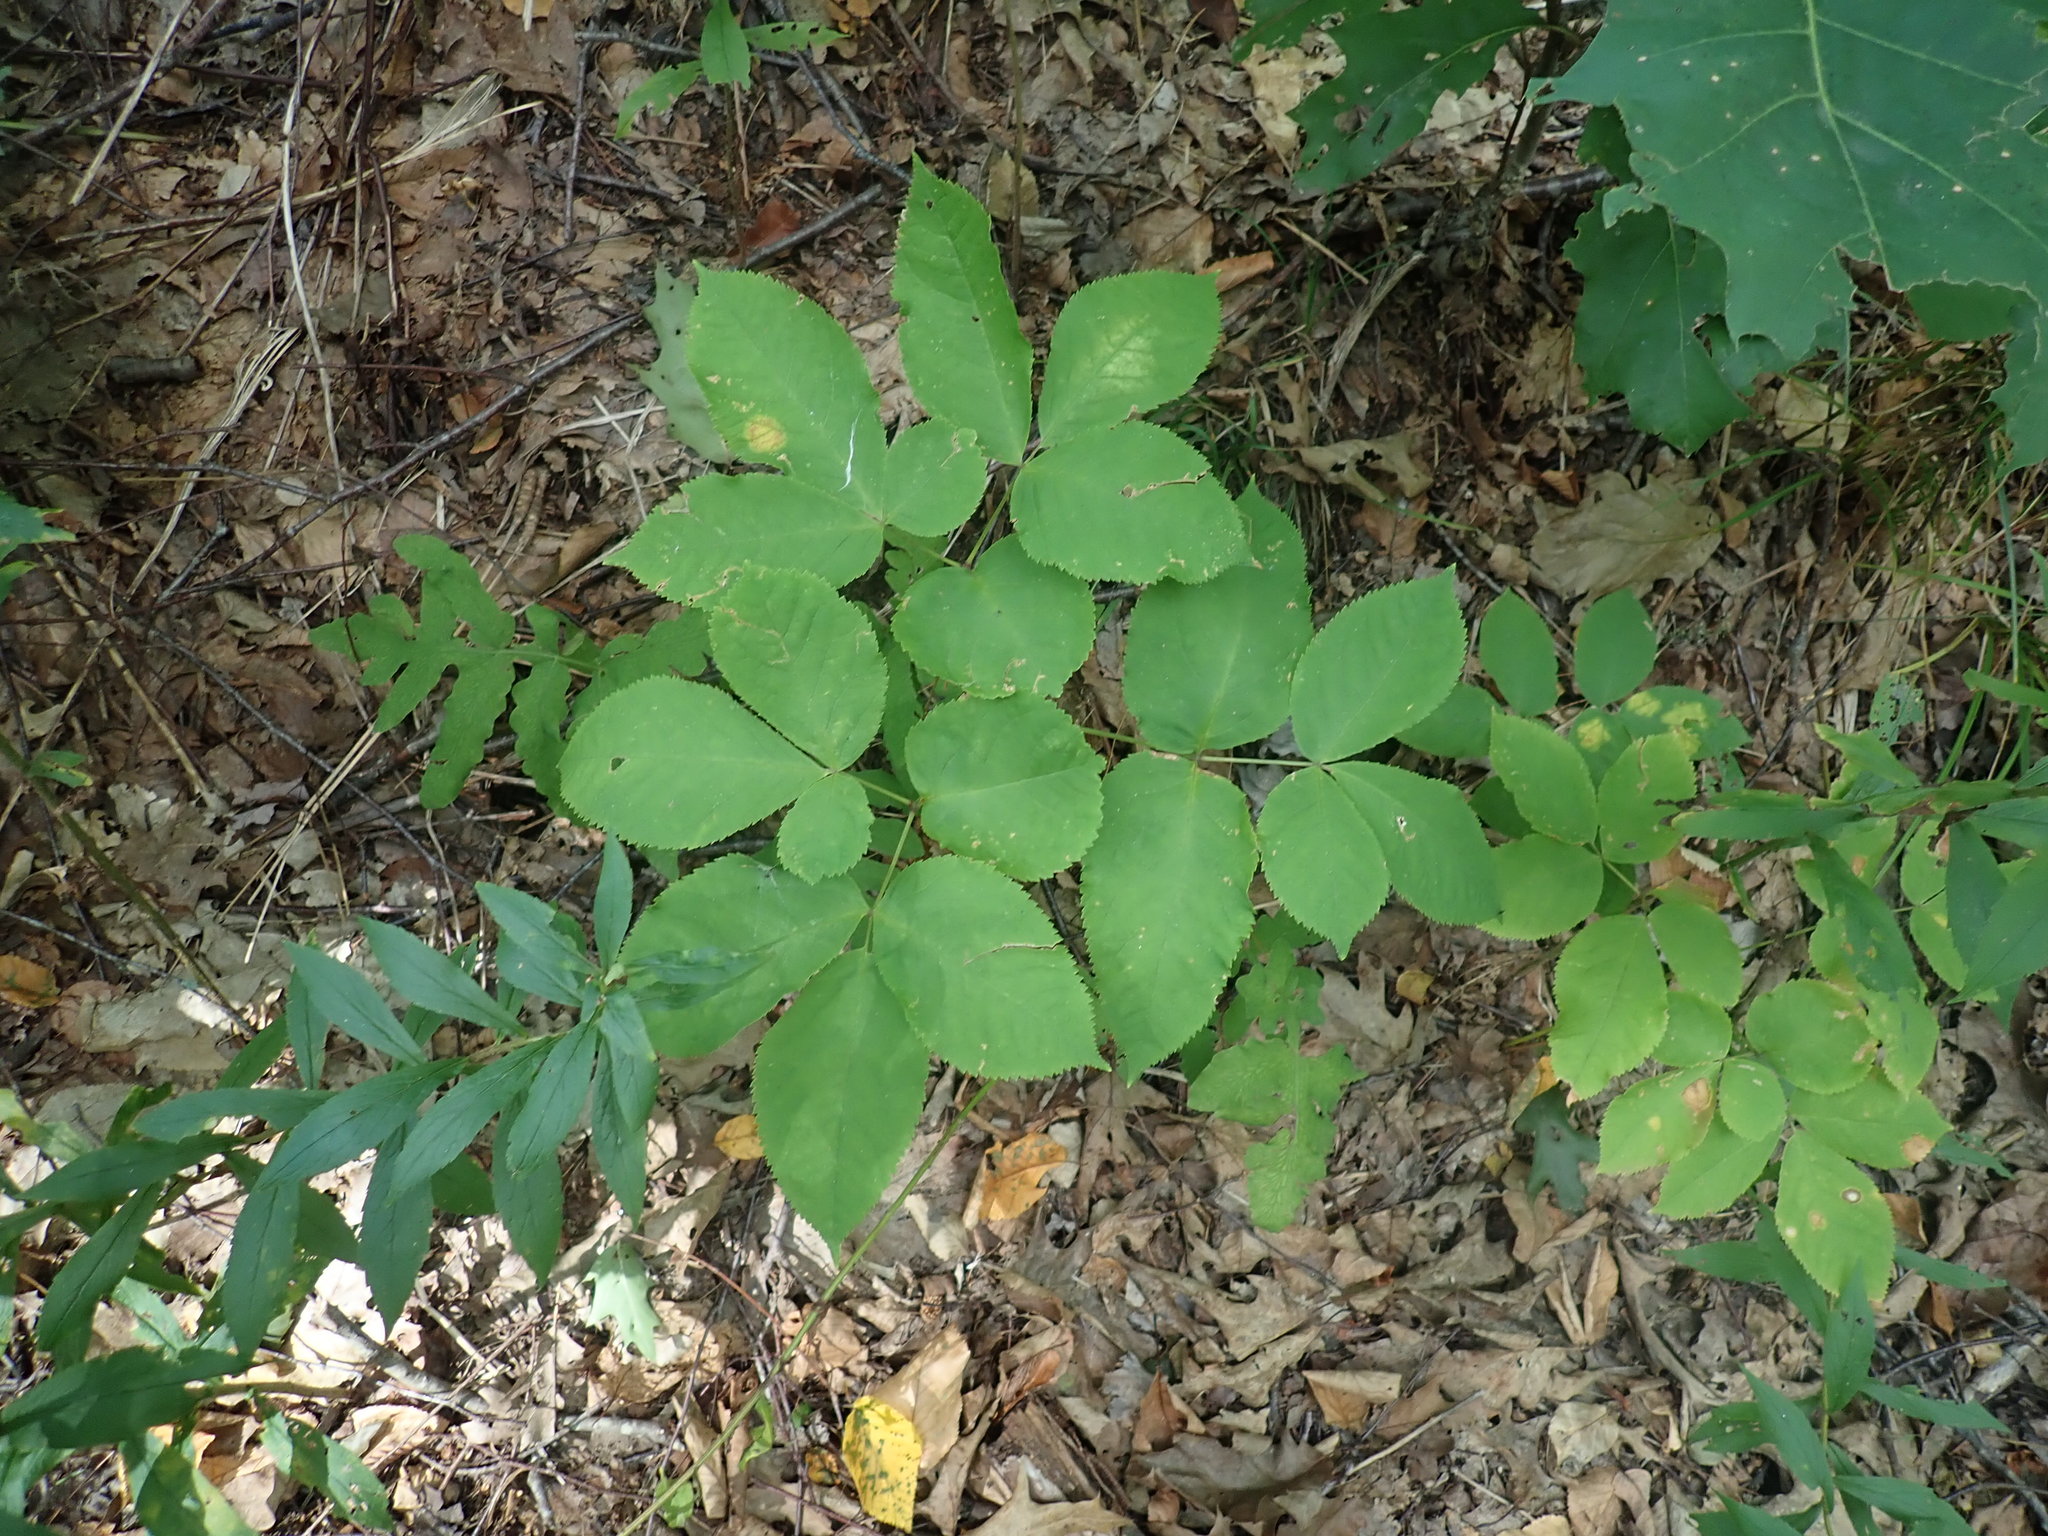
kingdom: Plantae
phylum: Tracheophyta
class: Magnoliopsida
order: Apiales
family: Araliaceae
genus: Aralia
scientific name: Aralia nudicaulis
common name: Wild sarsaparilla
